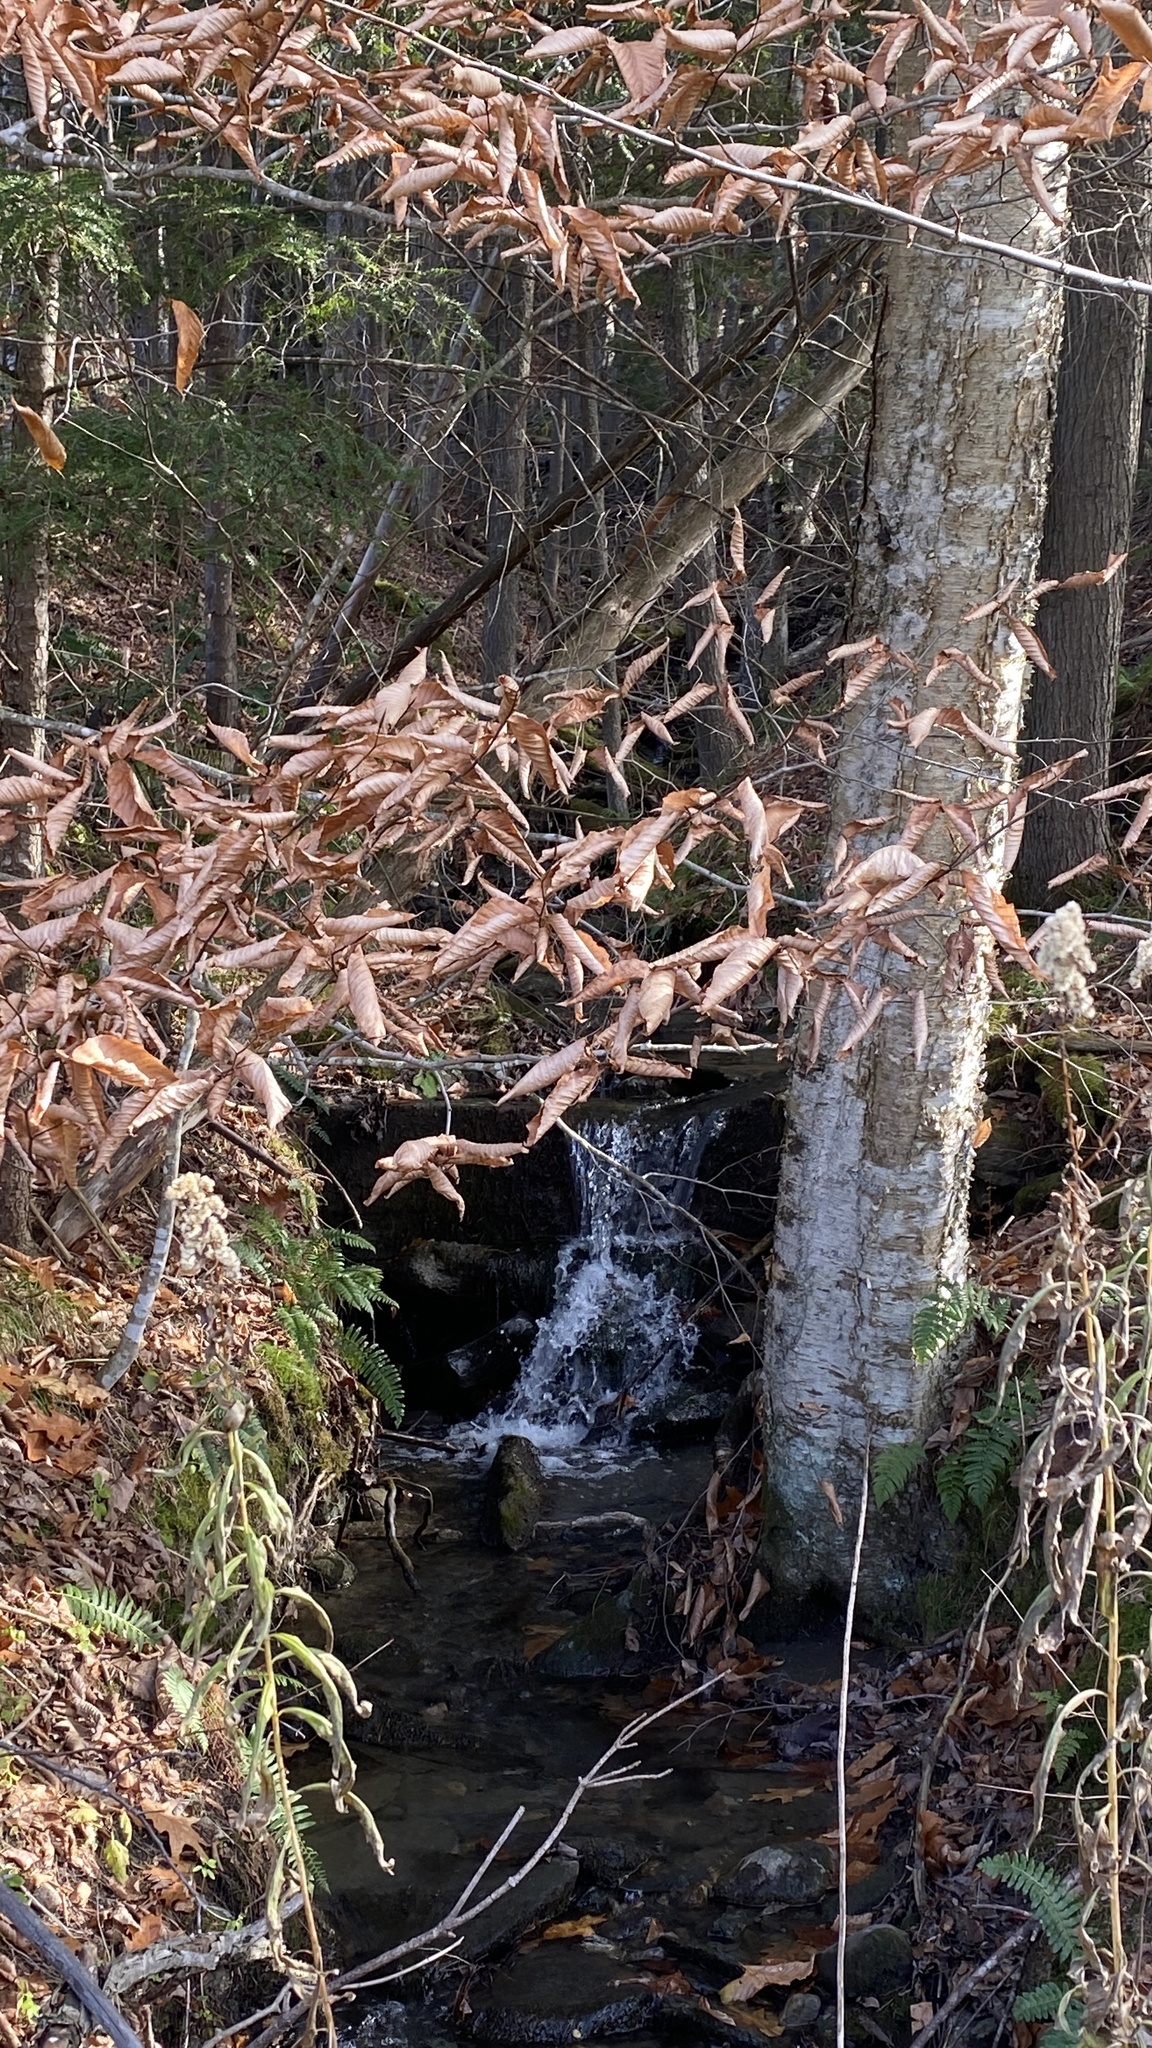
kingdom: Plantae
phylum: Tracheophyta
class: Magnoliopsida
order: Fagales
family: Betulaceae
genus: Betula
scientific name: Betula alleghaniensis
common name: Yellow birch
